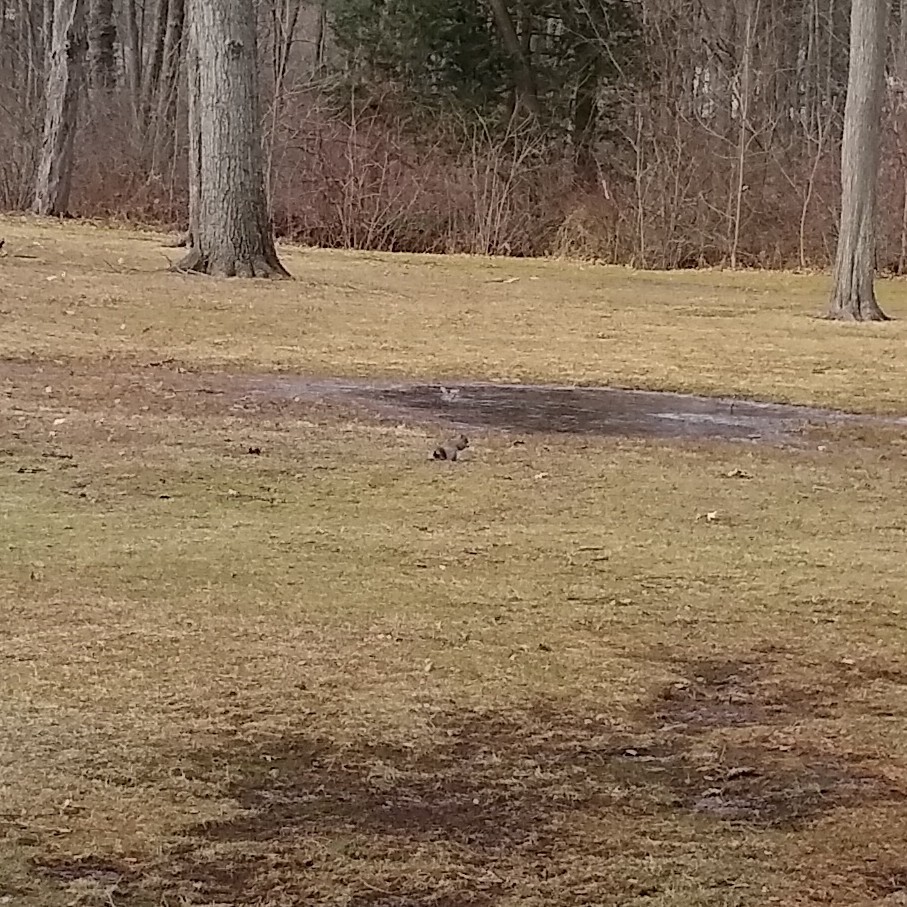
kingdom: Animalia
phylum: Chordata
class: Mammalia
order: Rodentia
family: Sciuridae
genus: Sciurus
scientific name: Sciurus carolinensis
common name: Eastern gray squirrel
